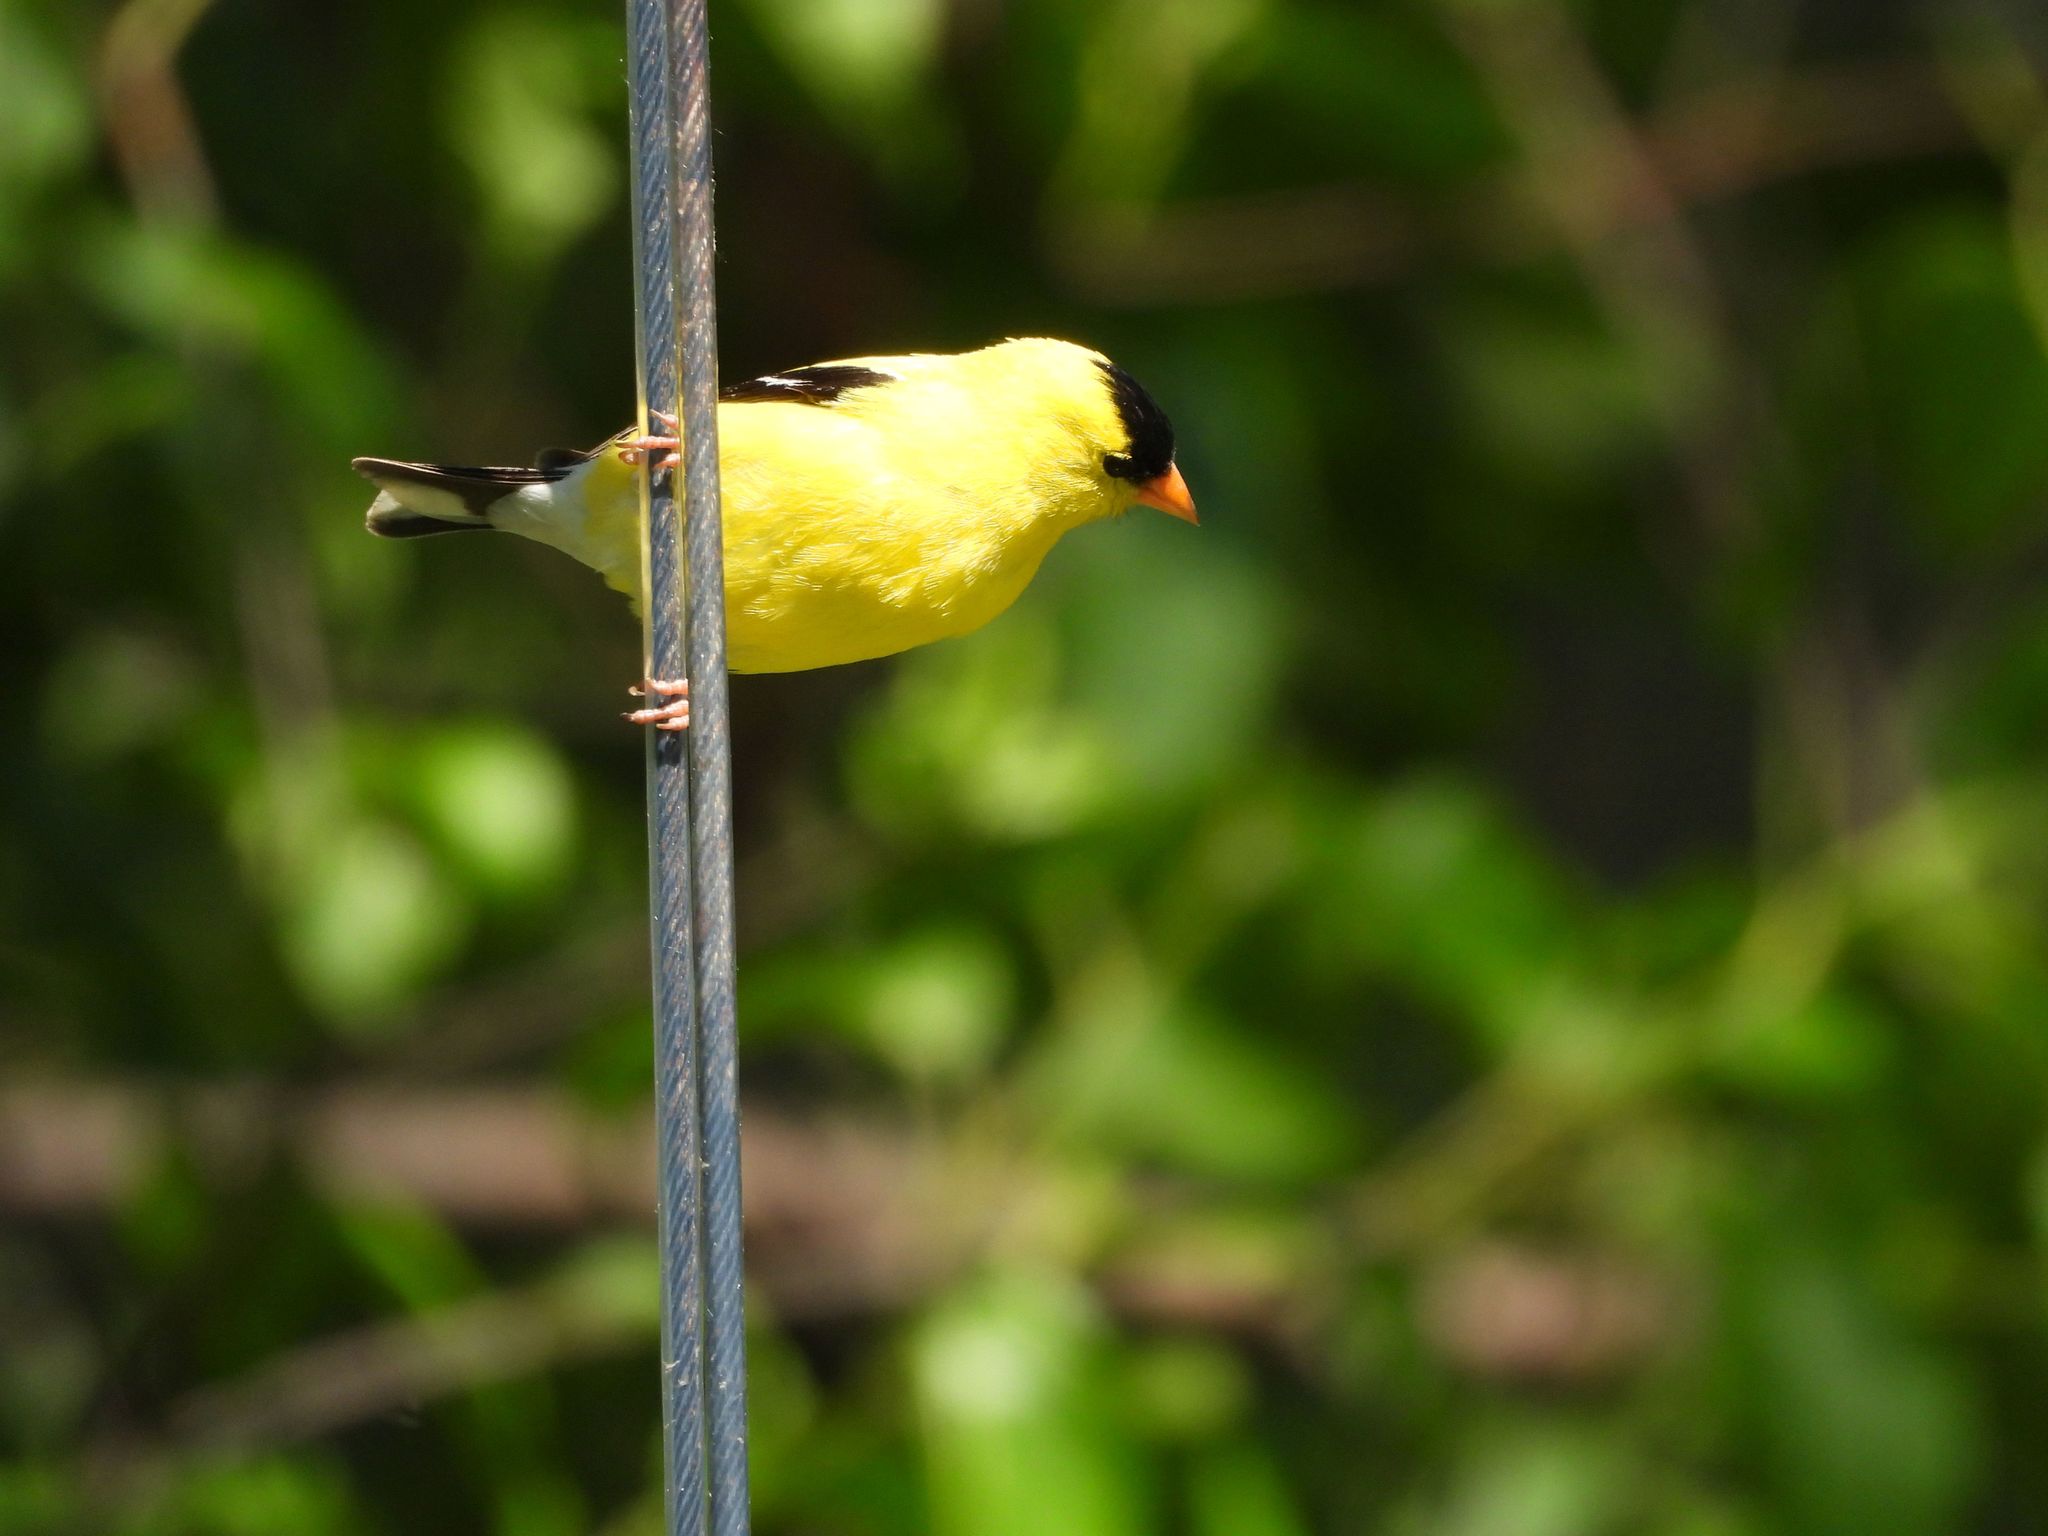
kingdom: Animalia
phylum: Chordata
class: Aves
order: Passeriformes
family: Fringillidae
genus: Spinus
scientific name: Spinus tristis
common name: American goldfinch
